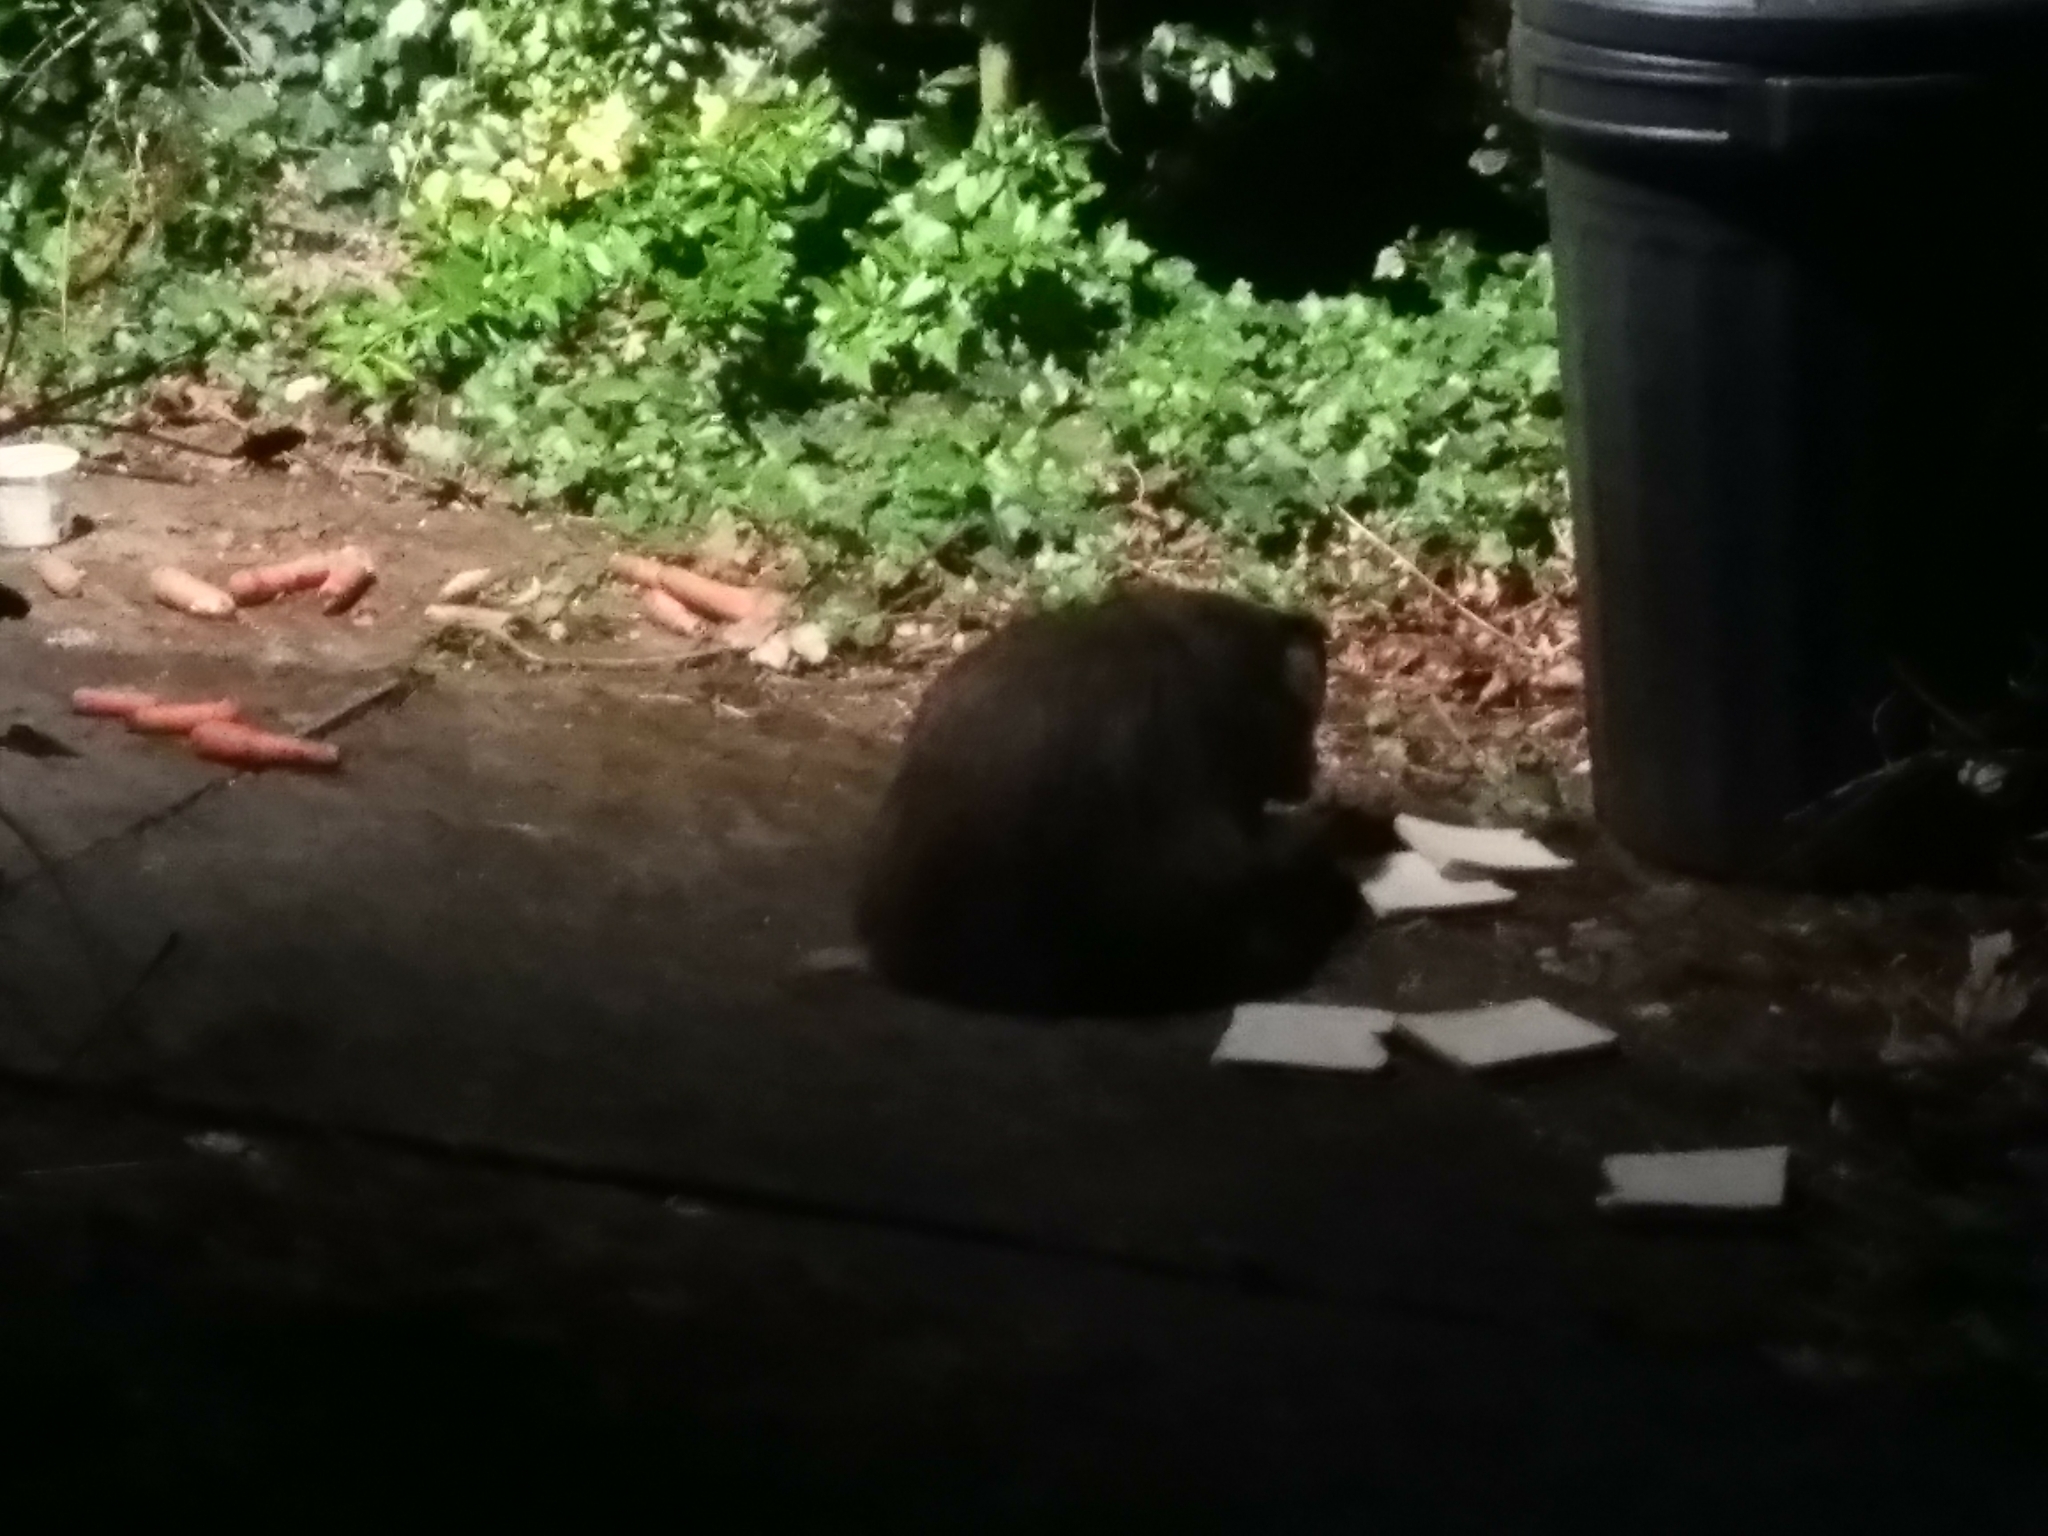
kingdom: Animalia
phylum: Chordata
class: Mammalia
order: Carnivora
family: Mustelidae
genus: Meles
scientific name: Meles meles
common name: Eurasian badger
